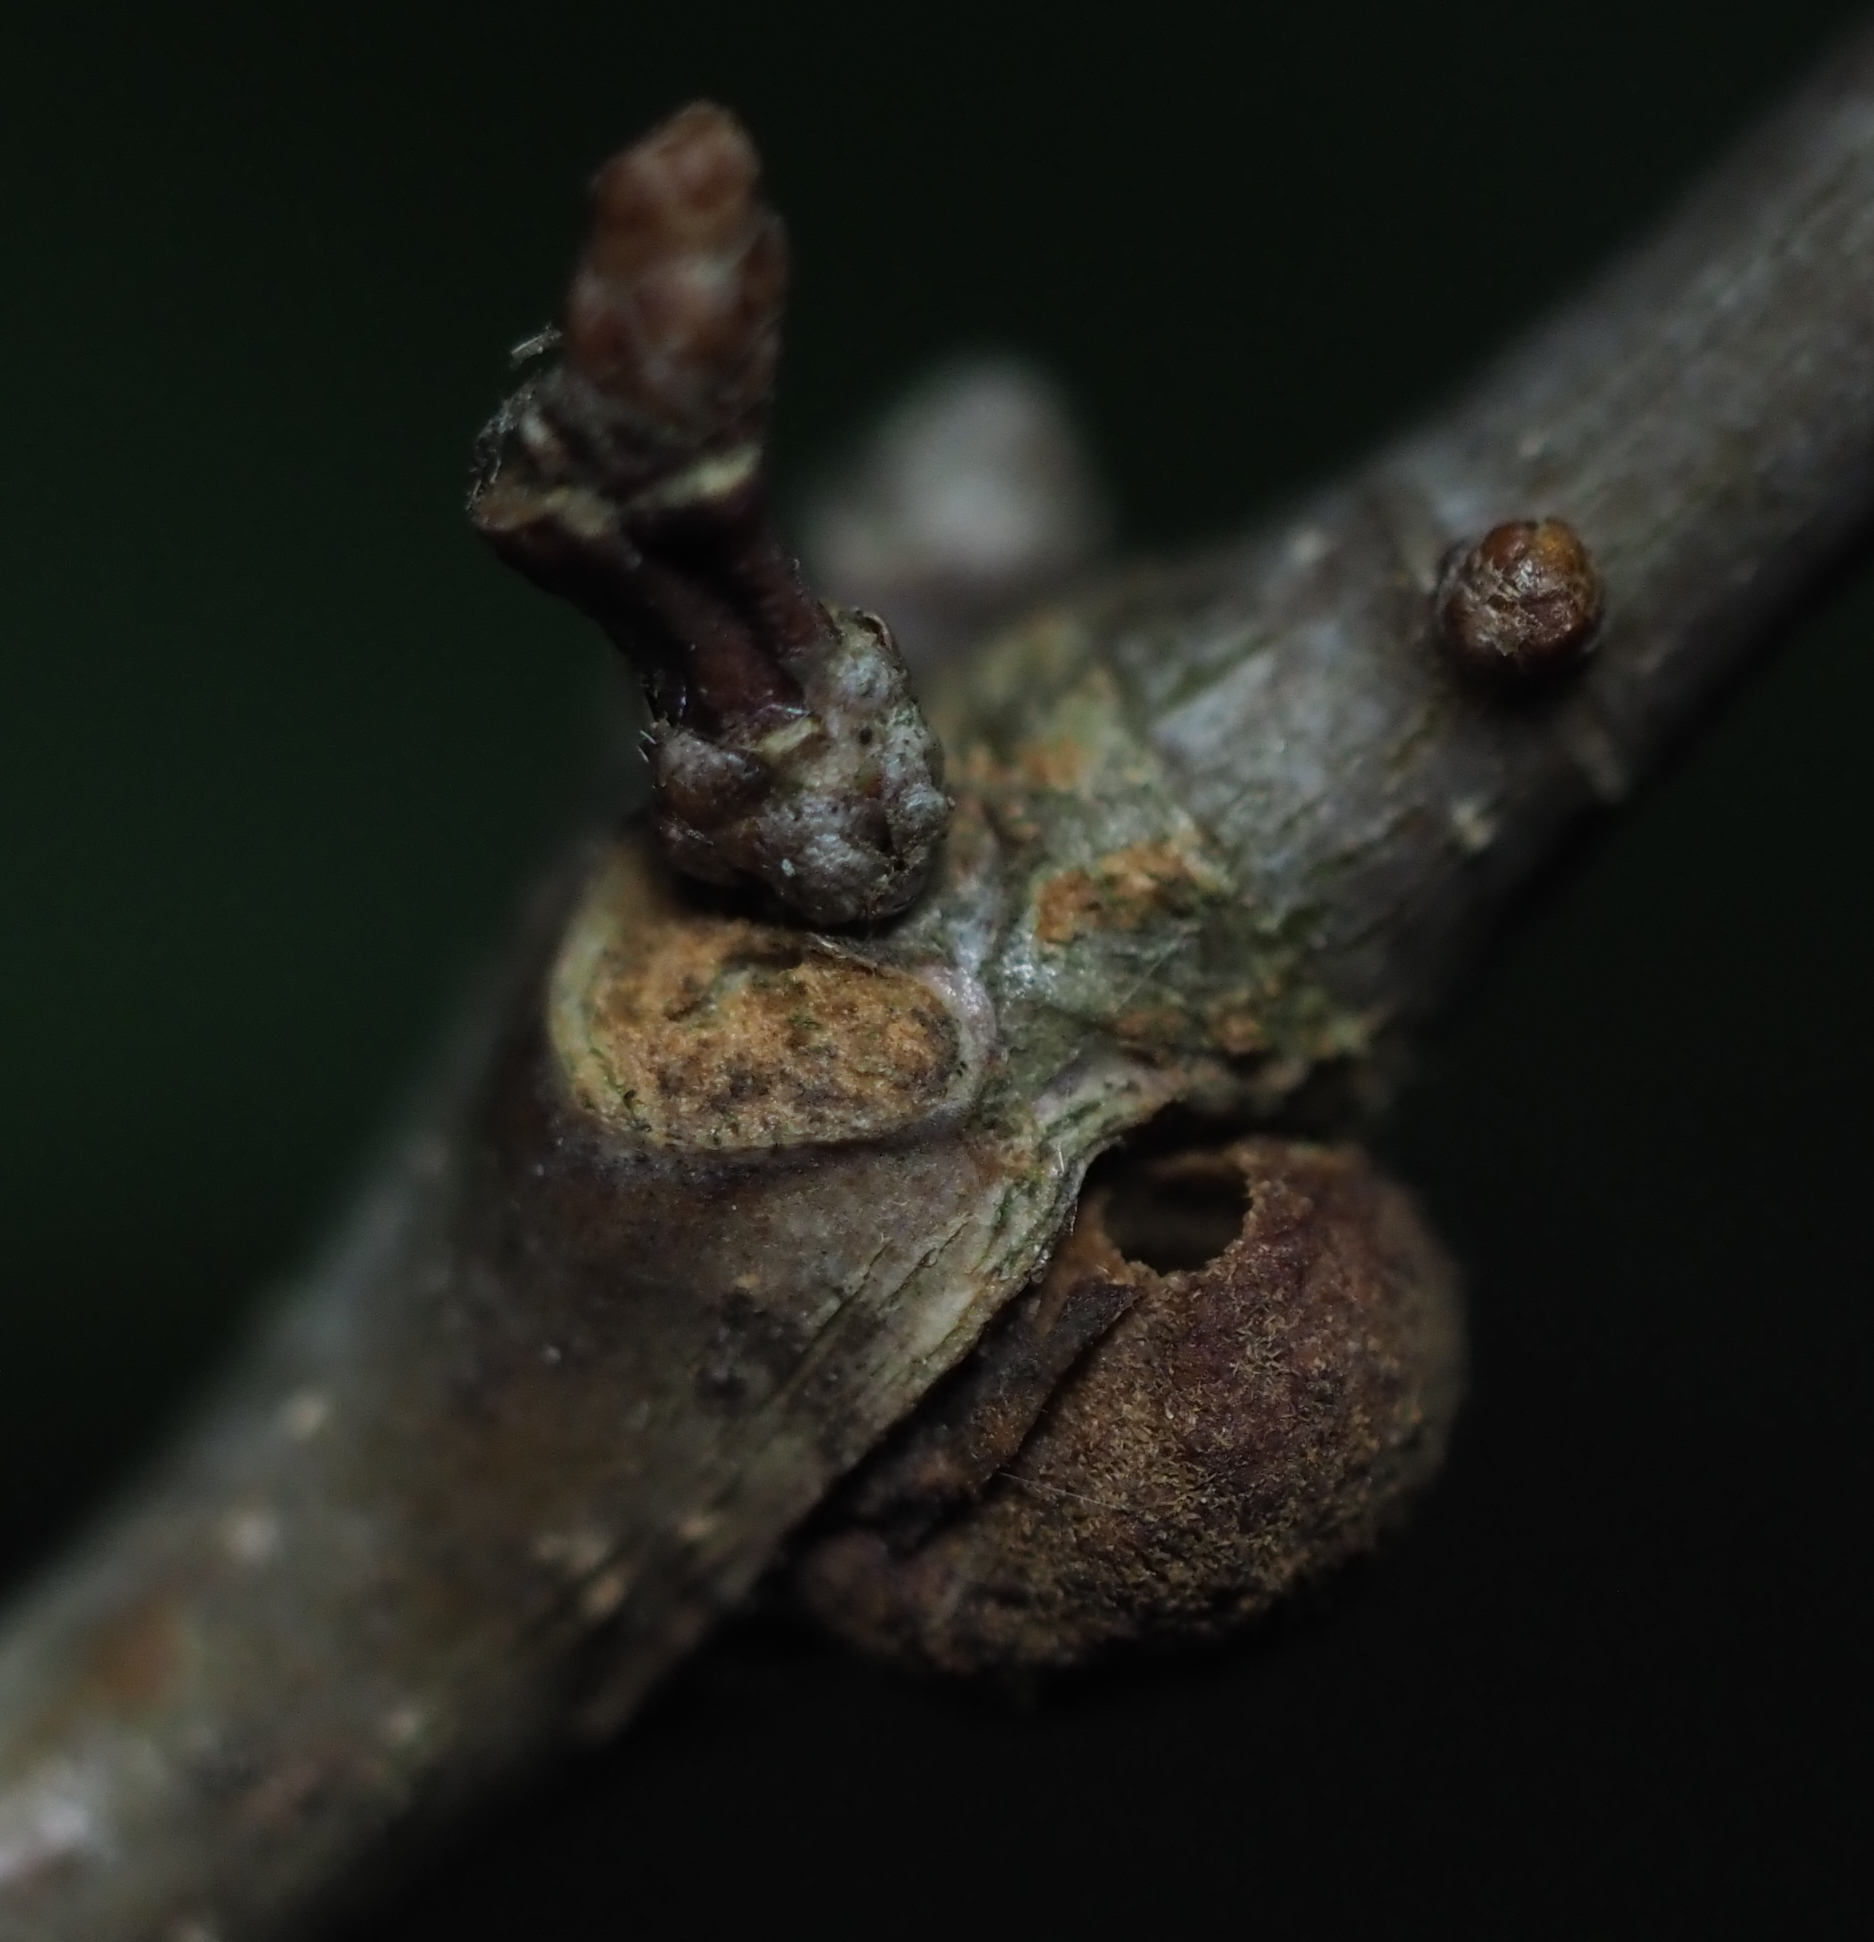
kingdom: Animalia
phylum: Arthropoda
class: Insecta
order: Hymenoptera
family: Cynipidae
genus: Andricus
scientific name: Andricus
